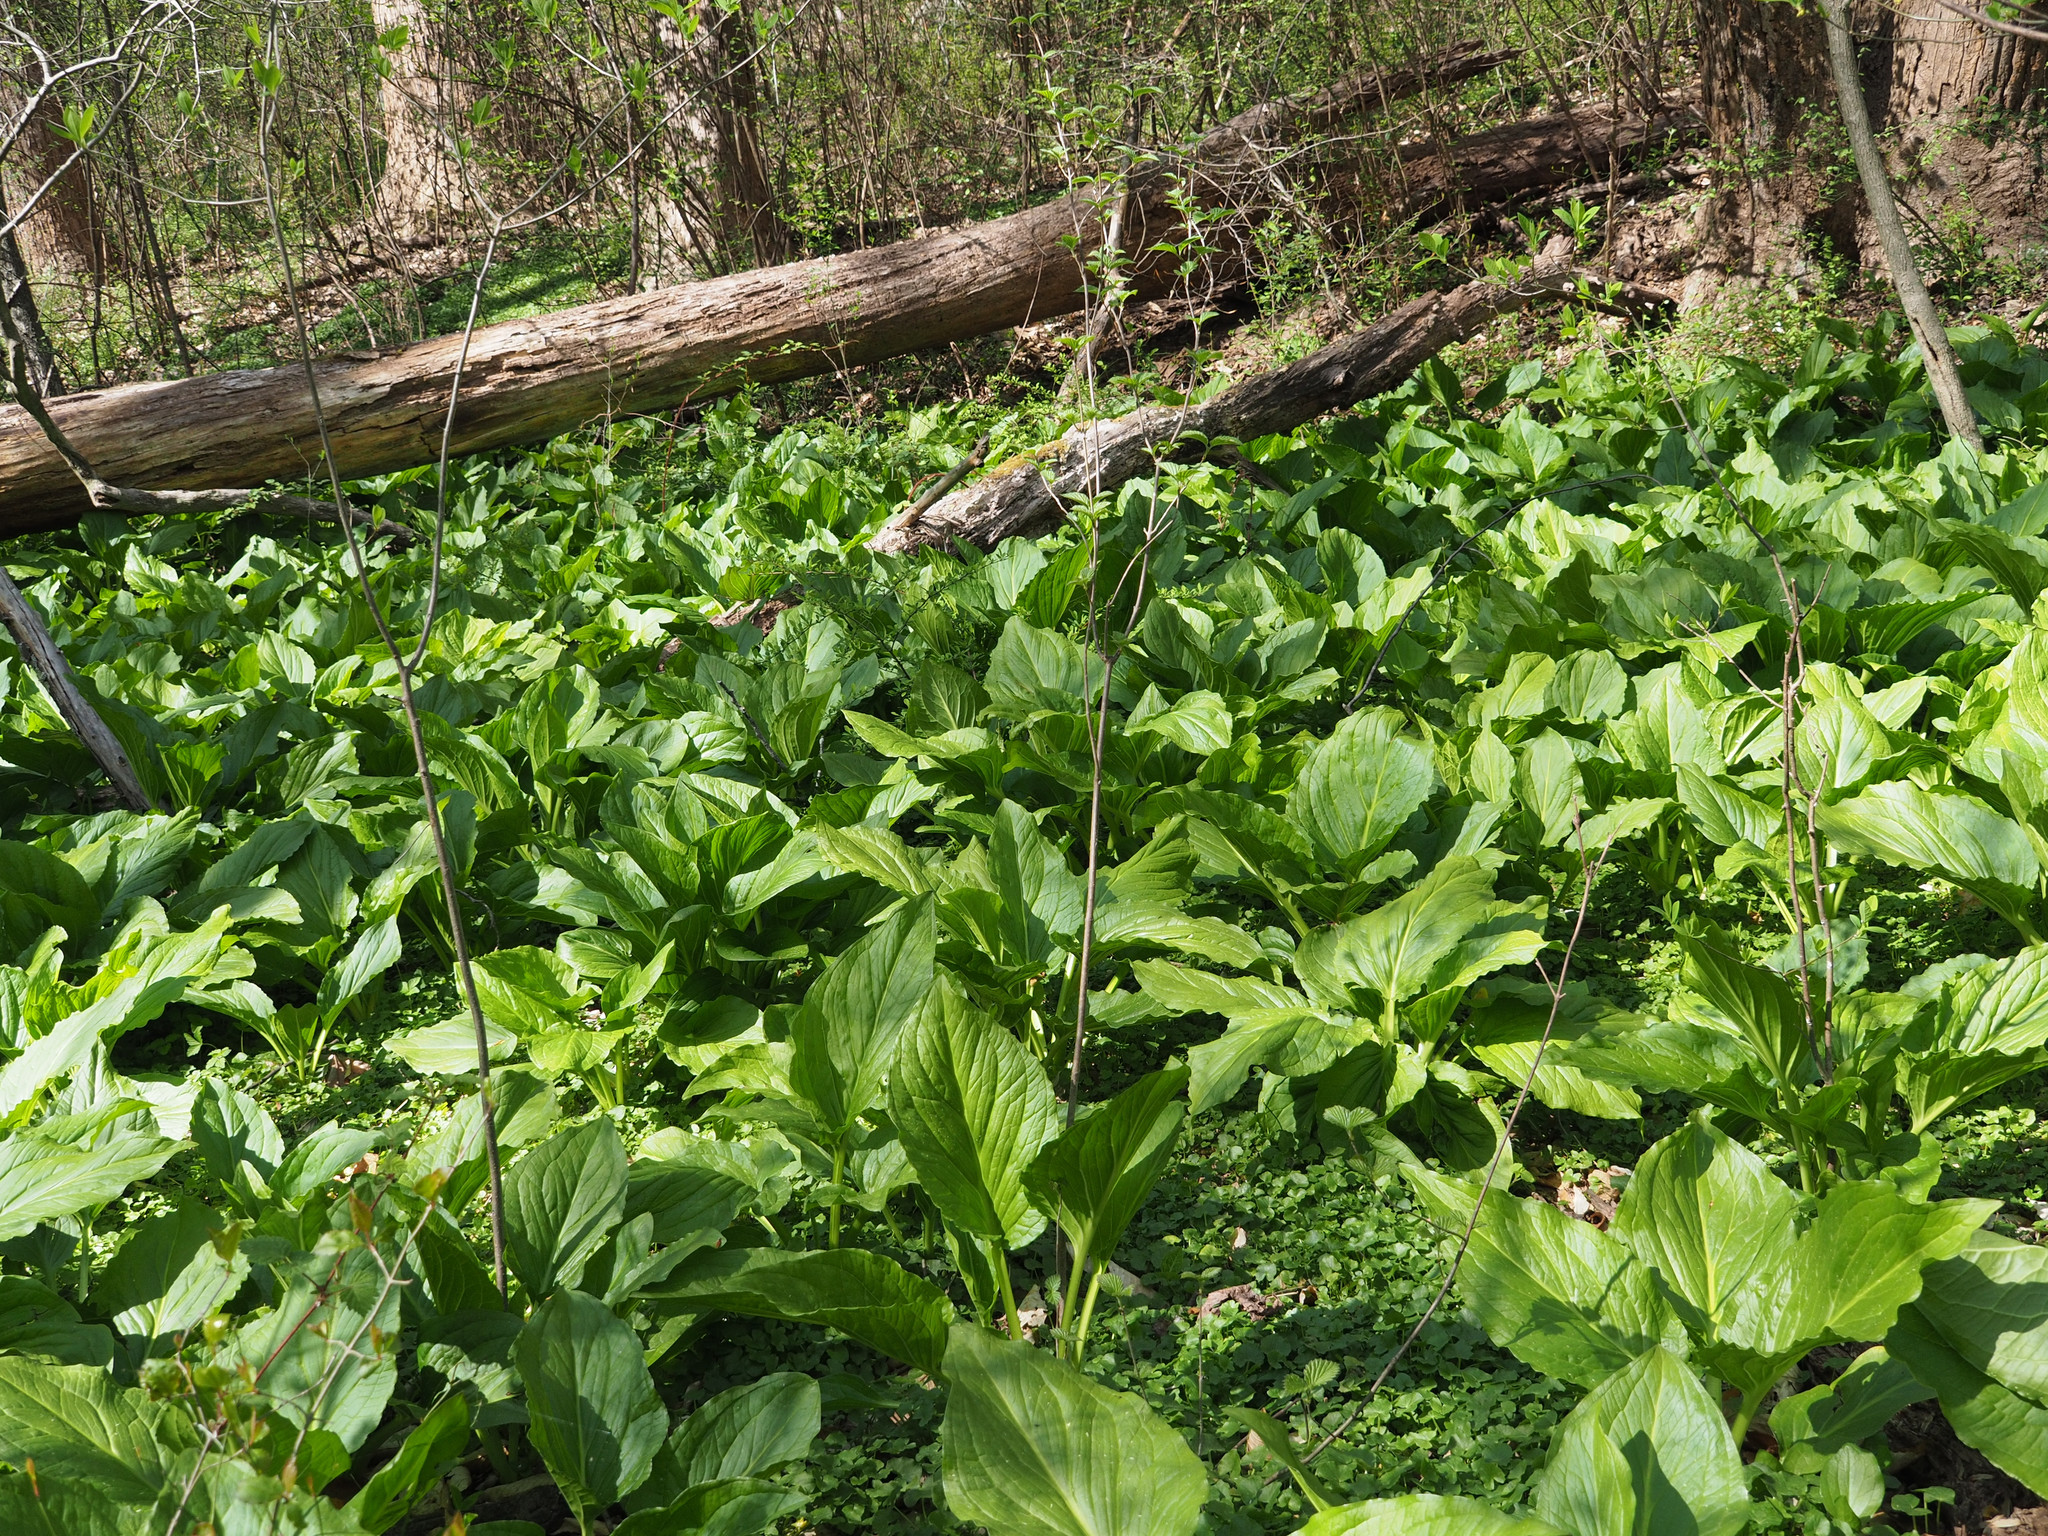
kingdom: Plantae
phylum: Tracheophyta
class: Liliopsida
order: Alismatales
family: Araceae
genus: Symplocarpus
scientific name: Symplocarpus foetidus
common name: Eastern skunk cabbage
